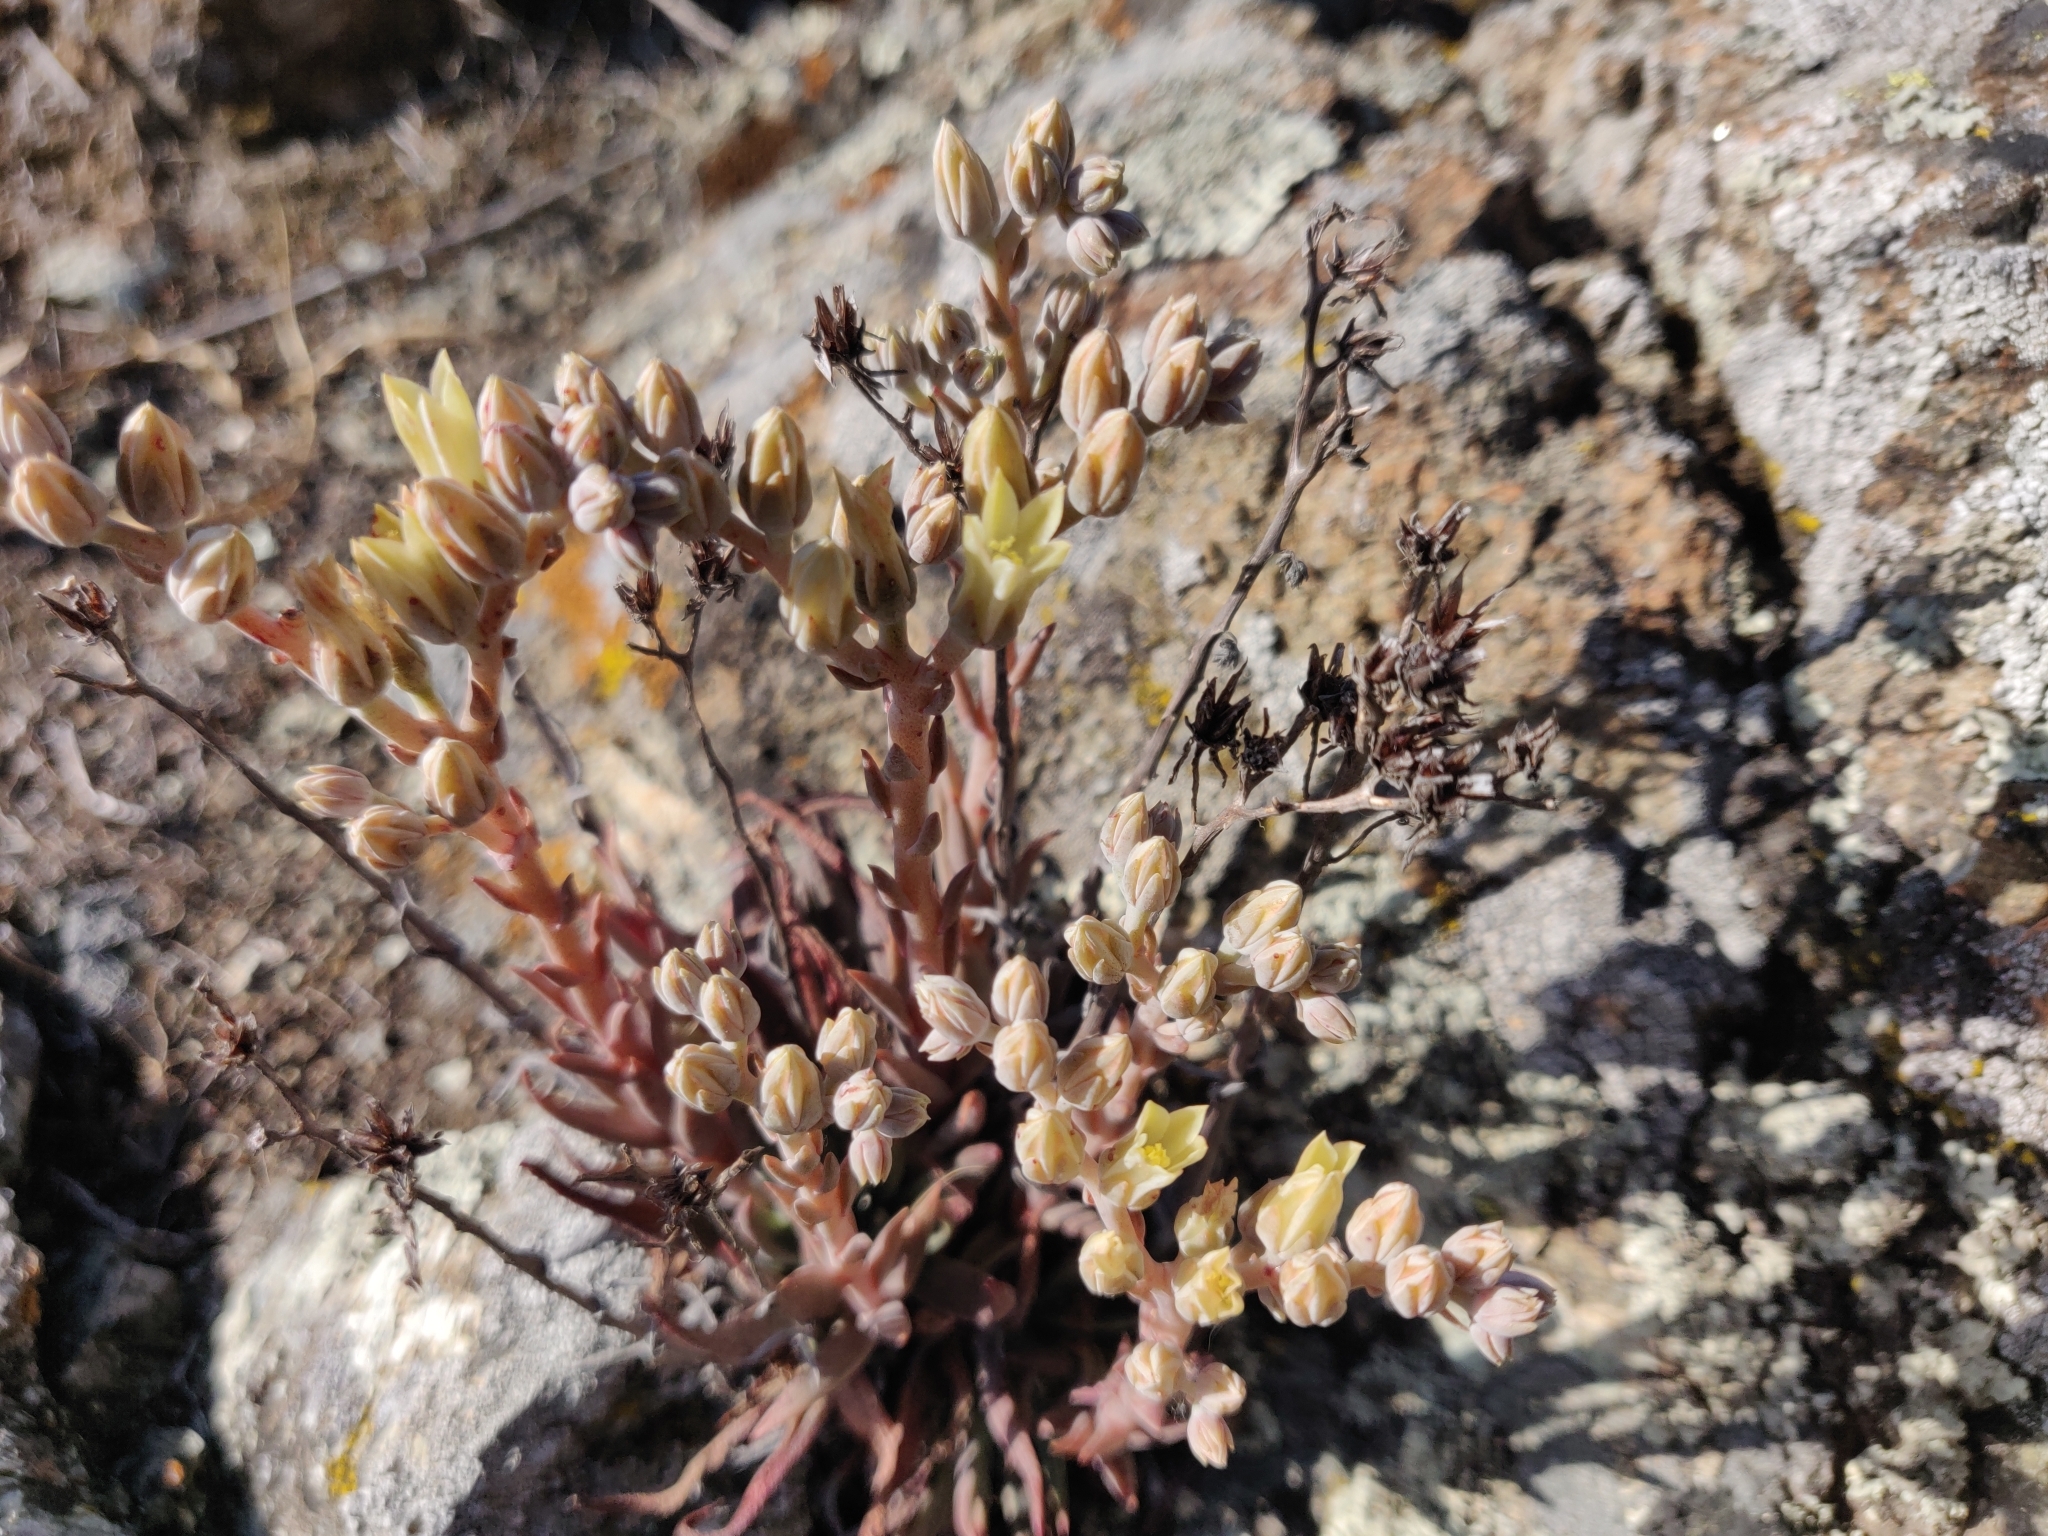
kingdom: Plantae
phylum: Tracheophyta
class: Magnoliopsida
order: Saxifragales
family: Crassulaceae
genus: Dudleya
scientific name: Dudleya abramsii
